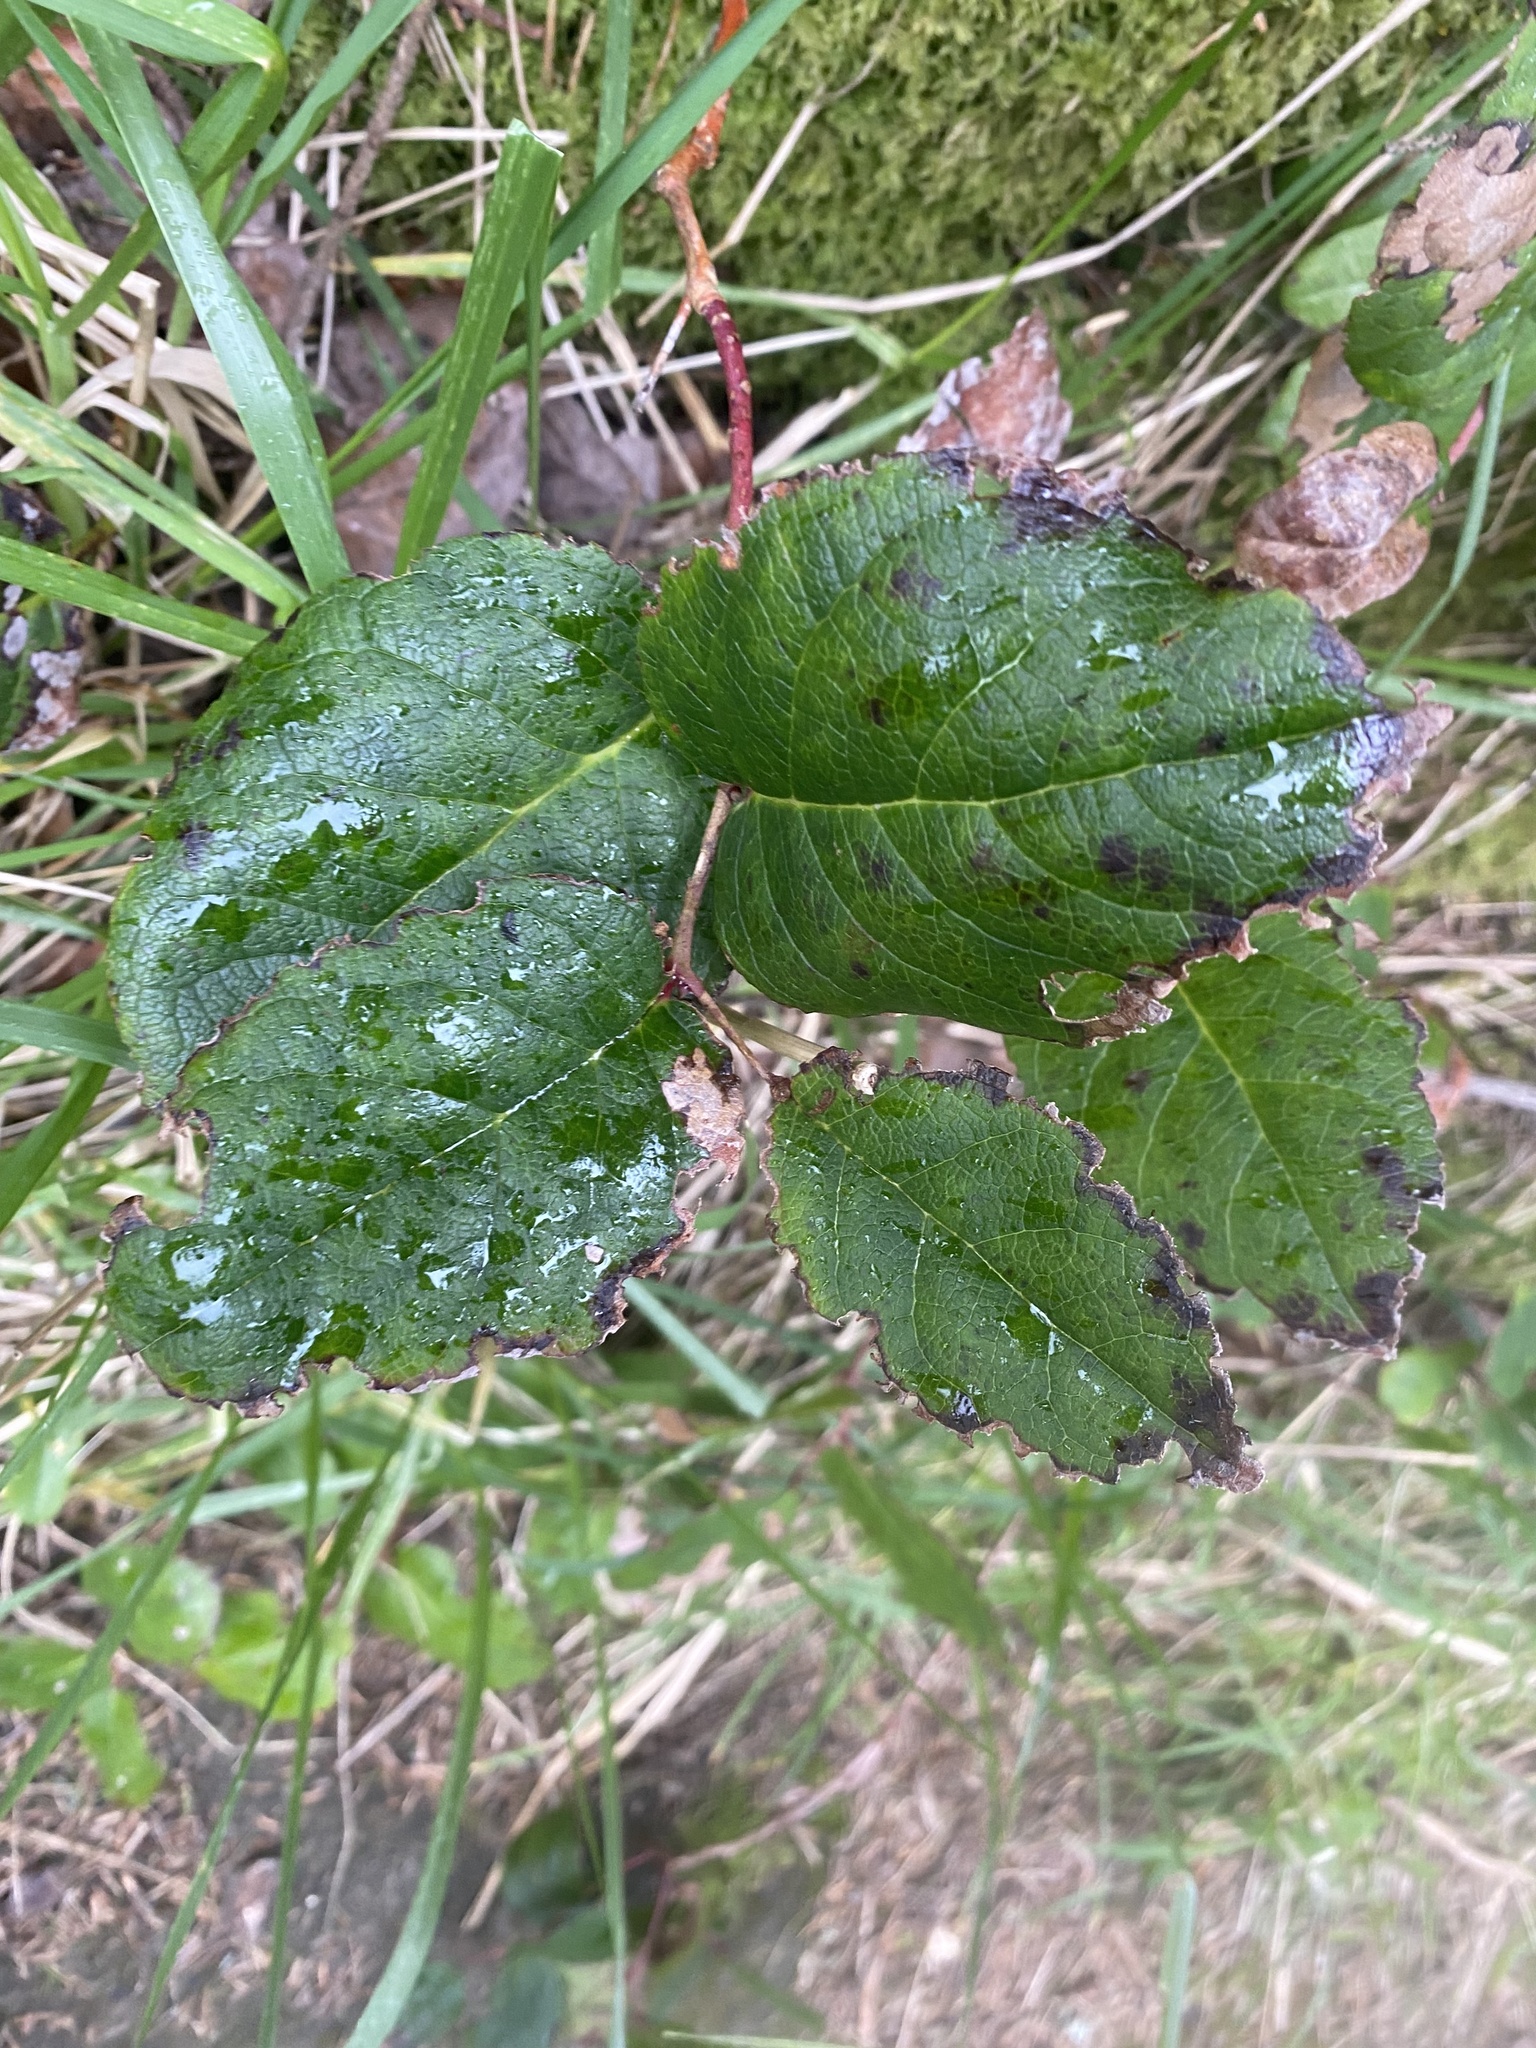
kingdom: Plantae
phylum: Tracheophyta
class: Magnoliopsida
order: Ericales
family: Ericaceae
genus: Gaultheria
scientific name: Gaultheria shallon
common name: Shallon
